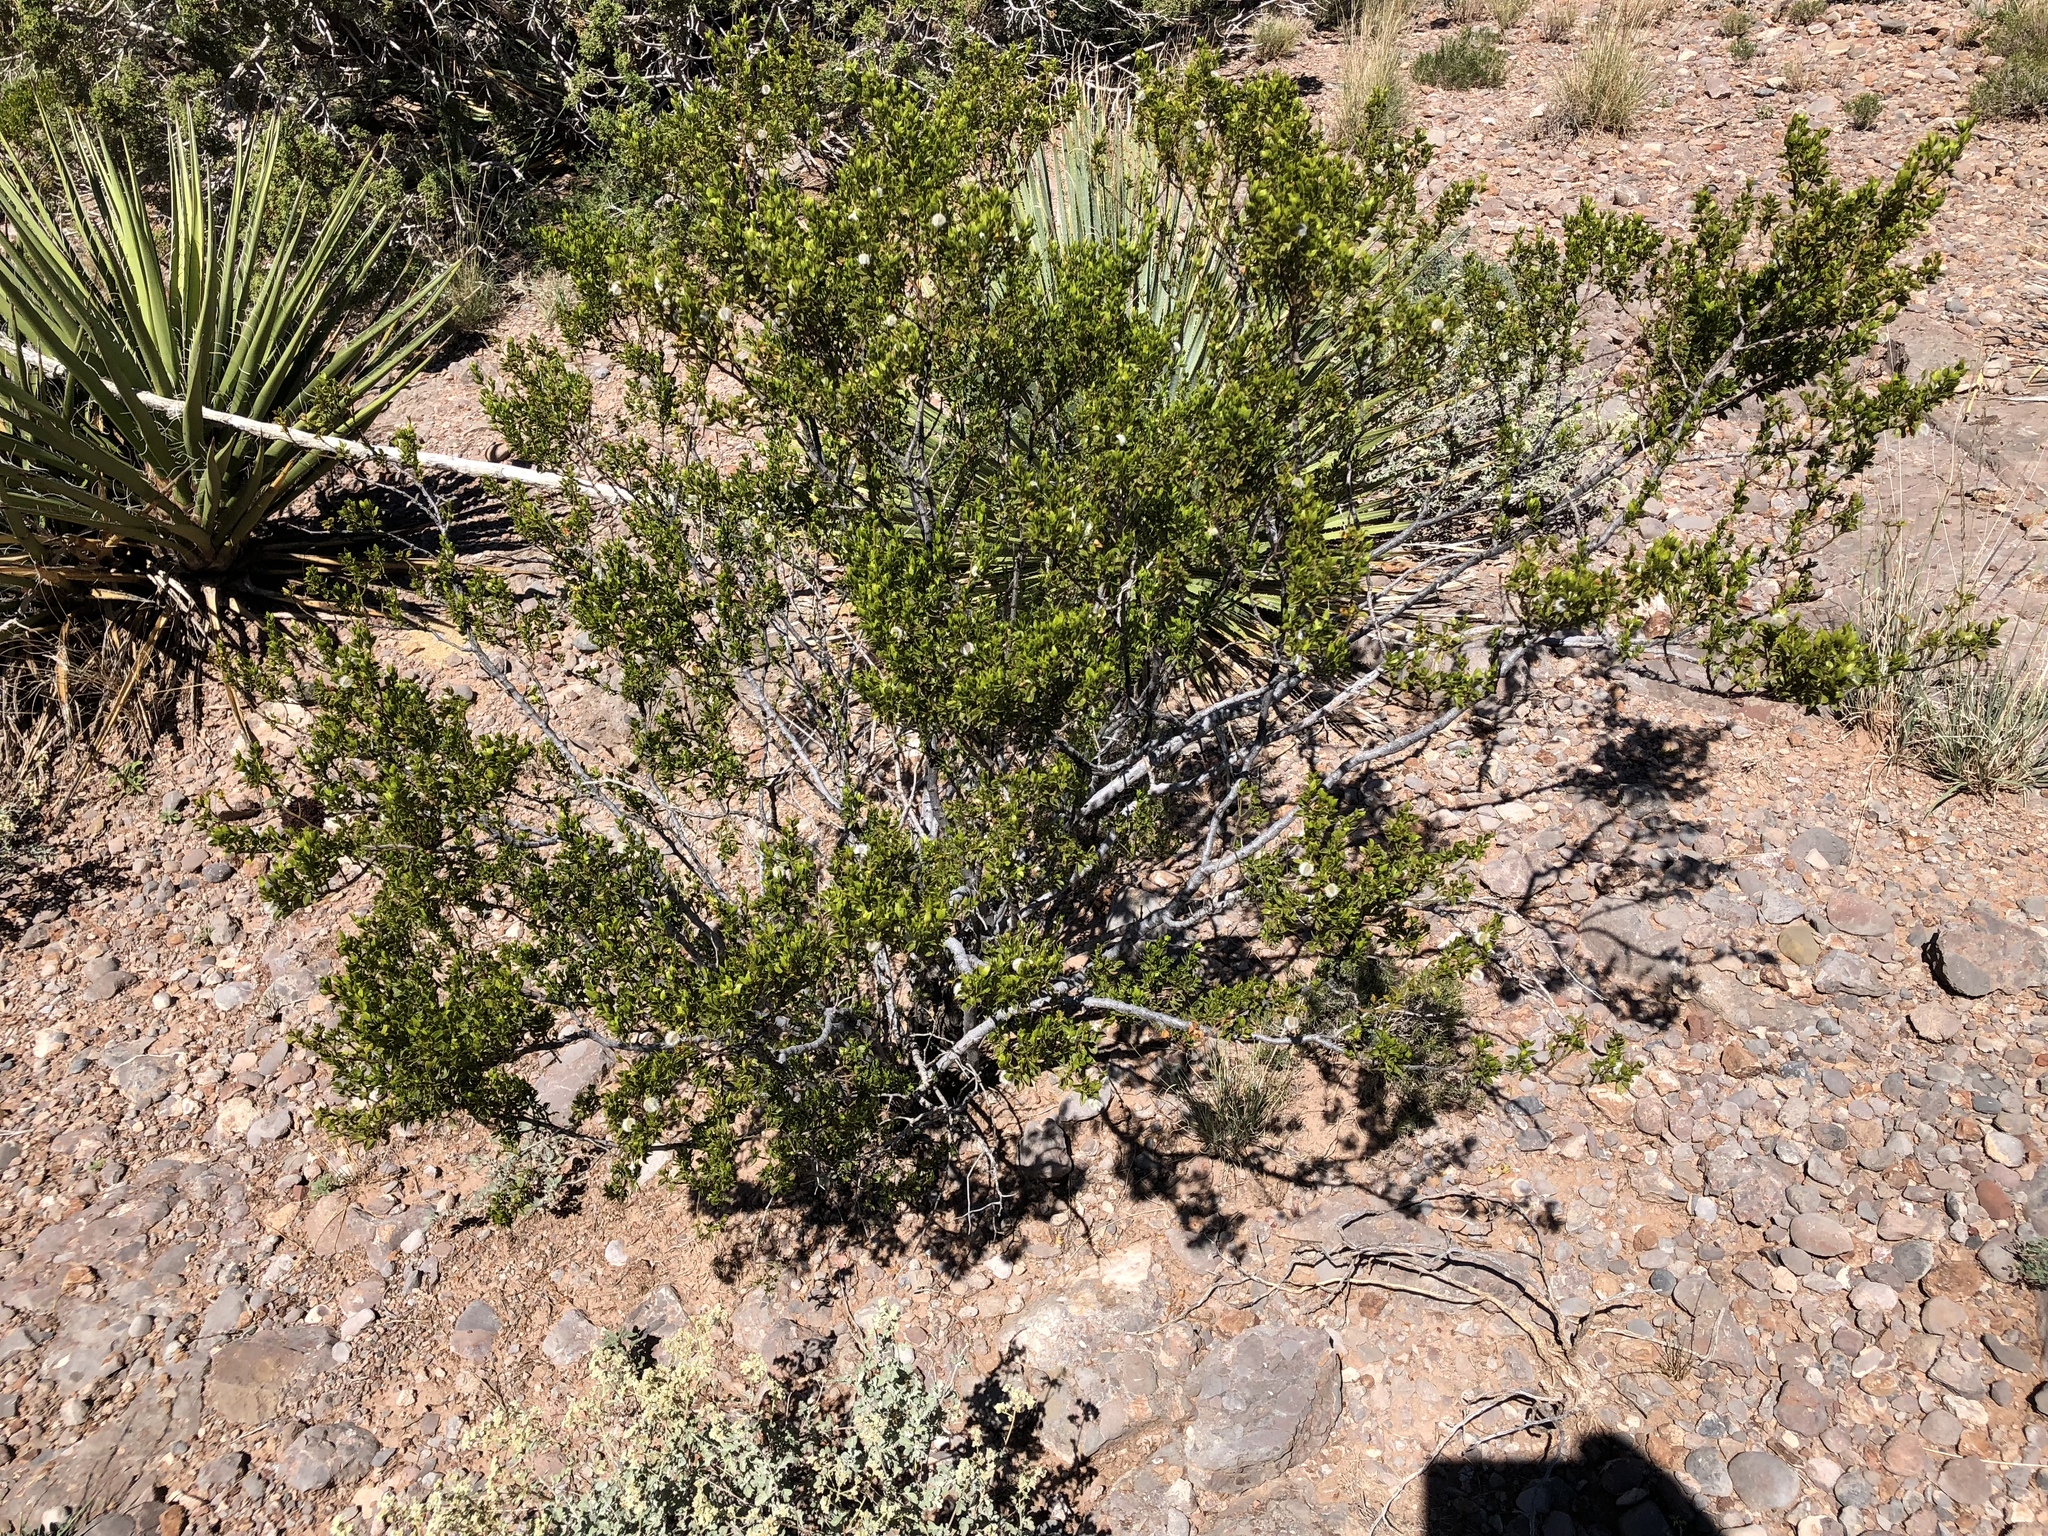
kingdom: Plantae
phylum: Tracheophyta
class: Magnoliopsida
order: Zygophyllales
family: Zygophyllaceae
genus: Larrea
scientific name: Larrea tridentata
